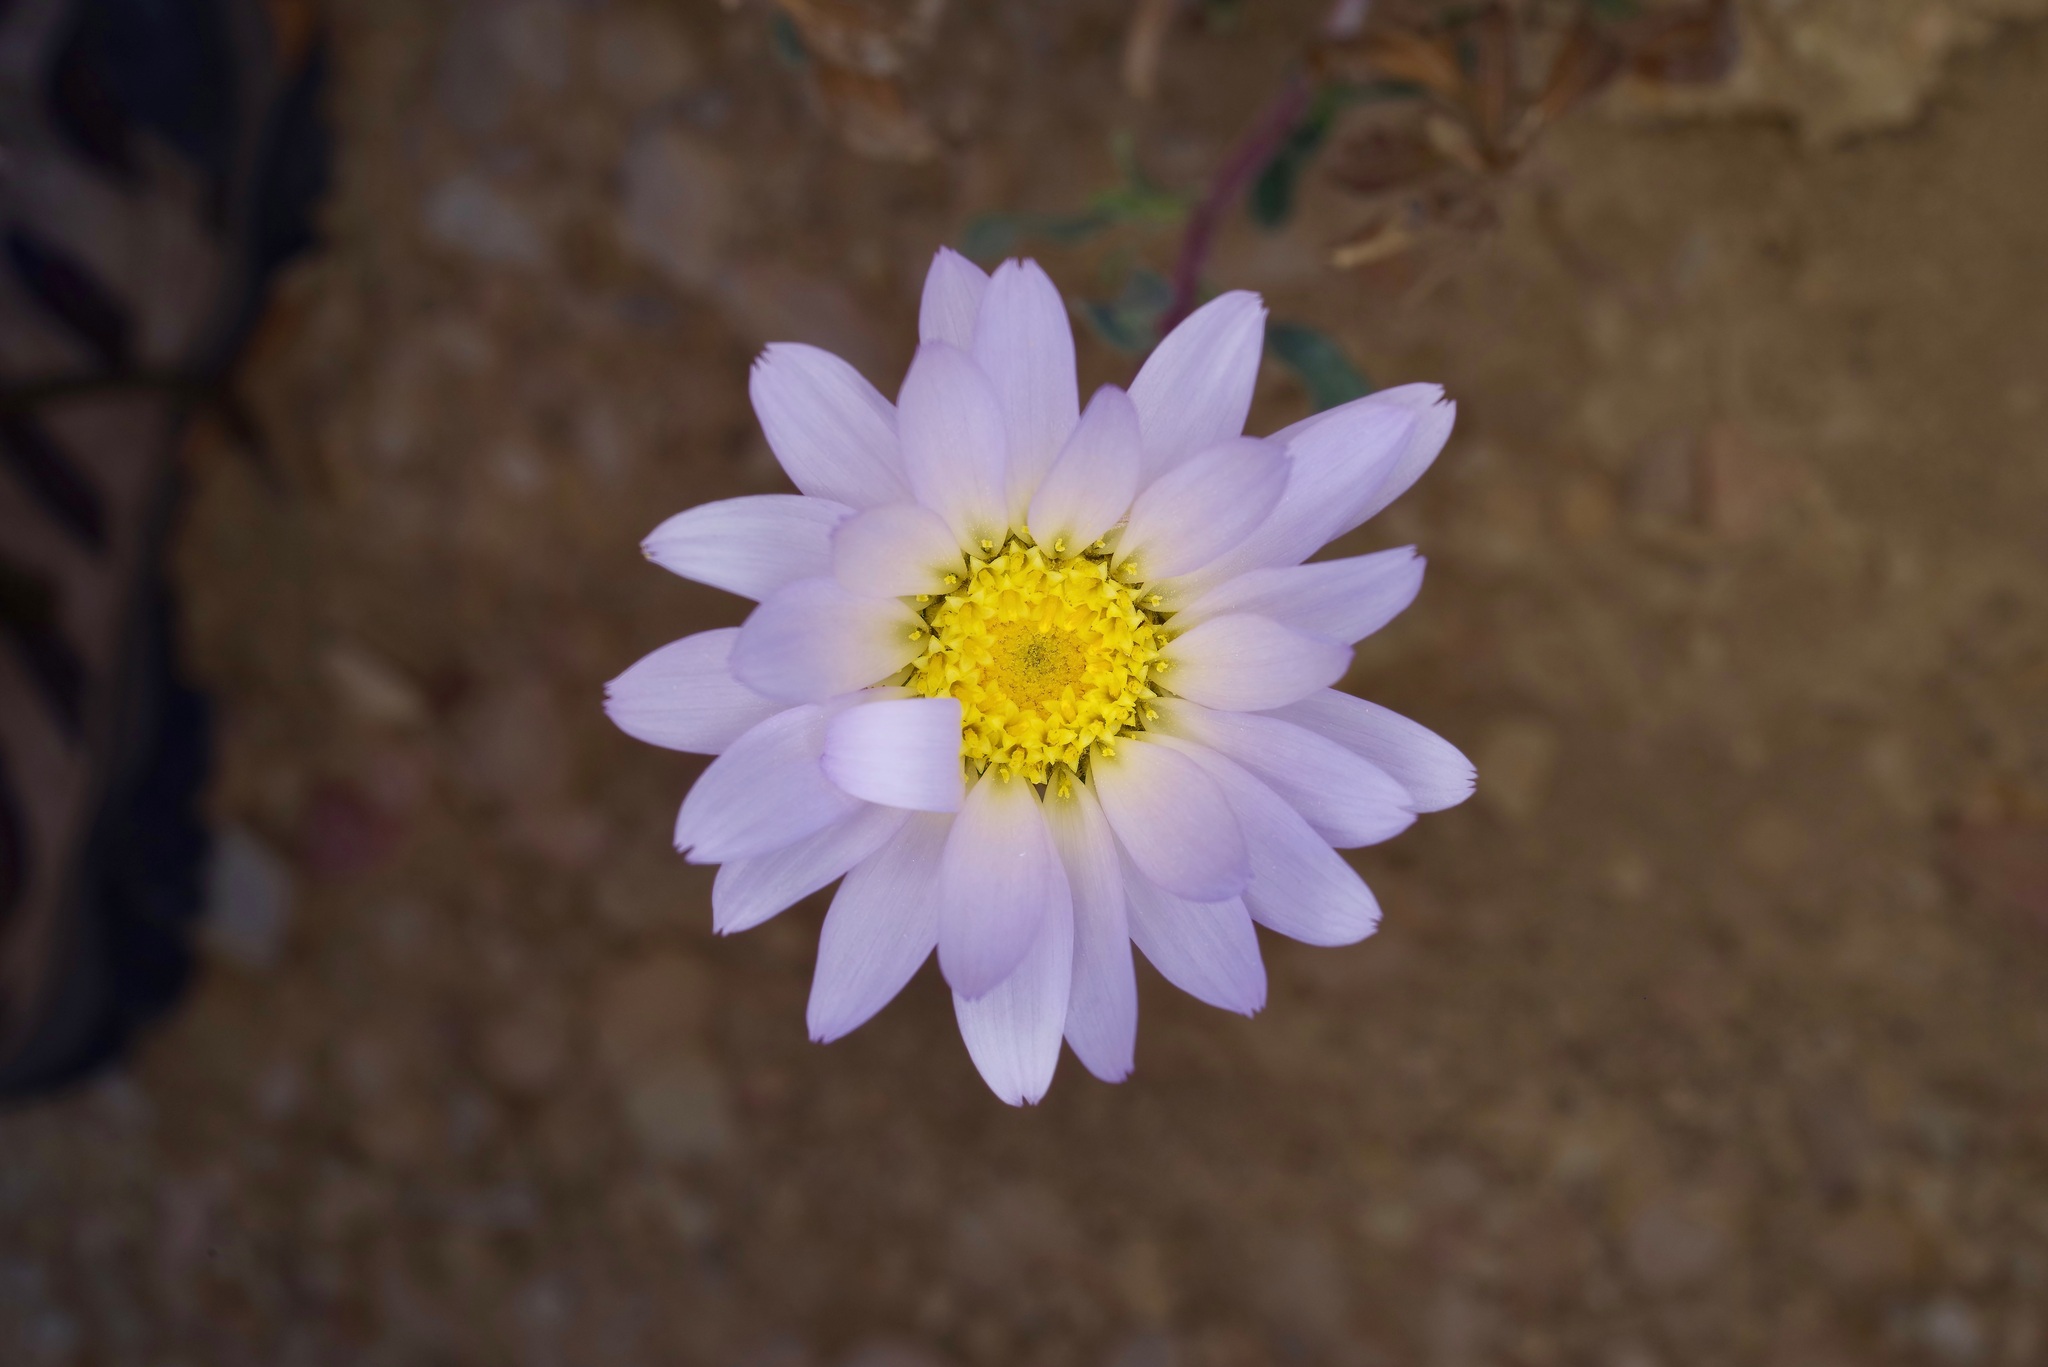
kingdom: Plantae
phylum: Tracheophyta
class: Magnoliopsida
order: Asterales
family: Asteraceae
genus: Xylorhiza
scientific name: Xylorhiza wrightii
